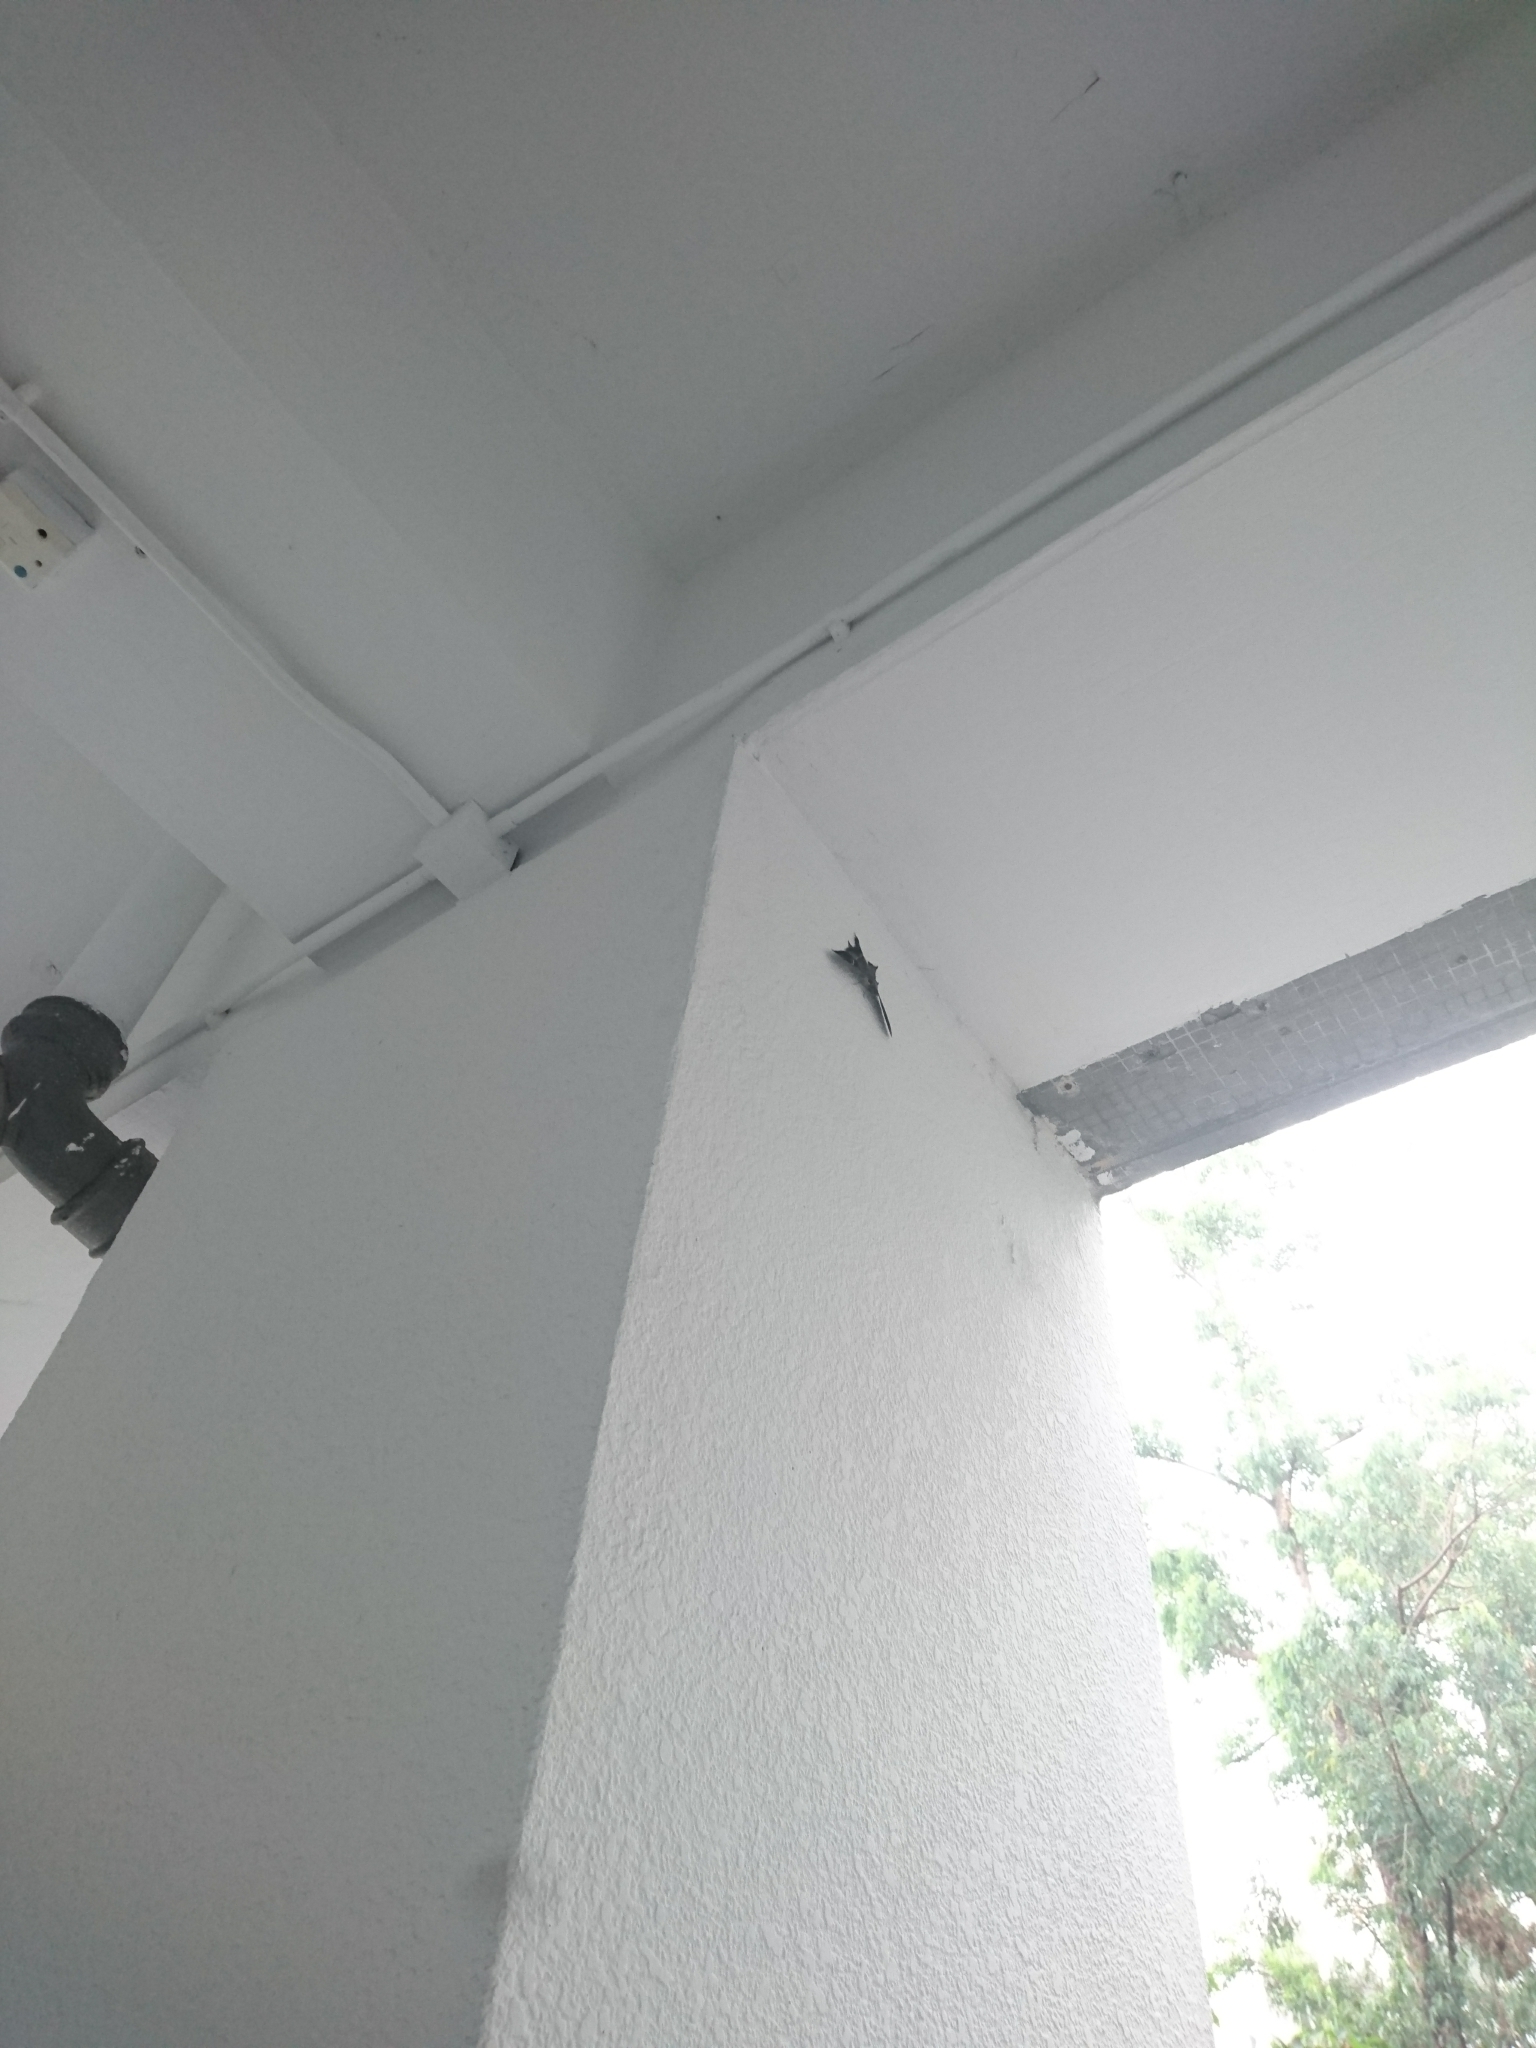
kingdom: Animalia
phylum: Arthropoda
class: Insecta
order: Lepidoptera
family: Uraniidae
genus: Lyssa
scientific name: Lyssa zampa
